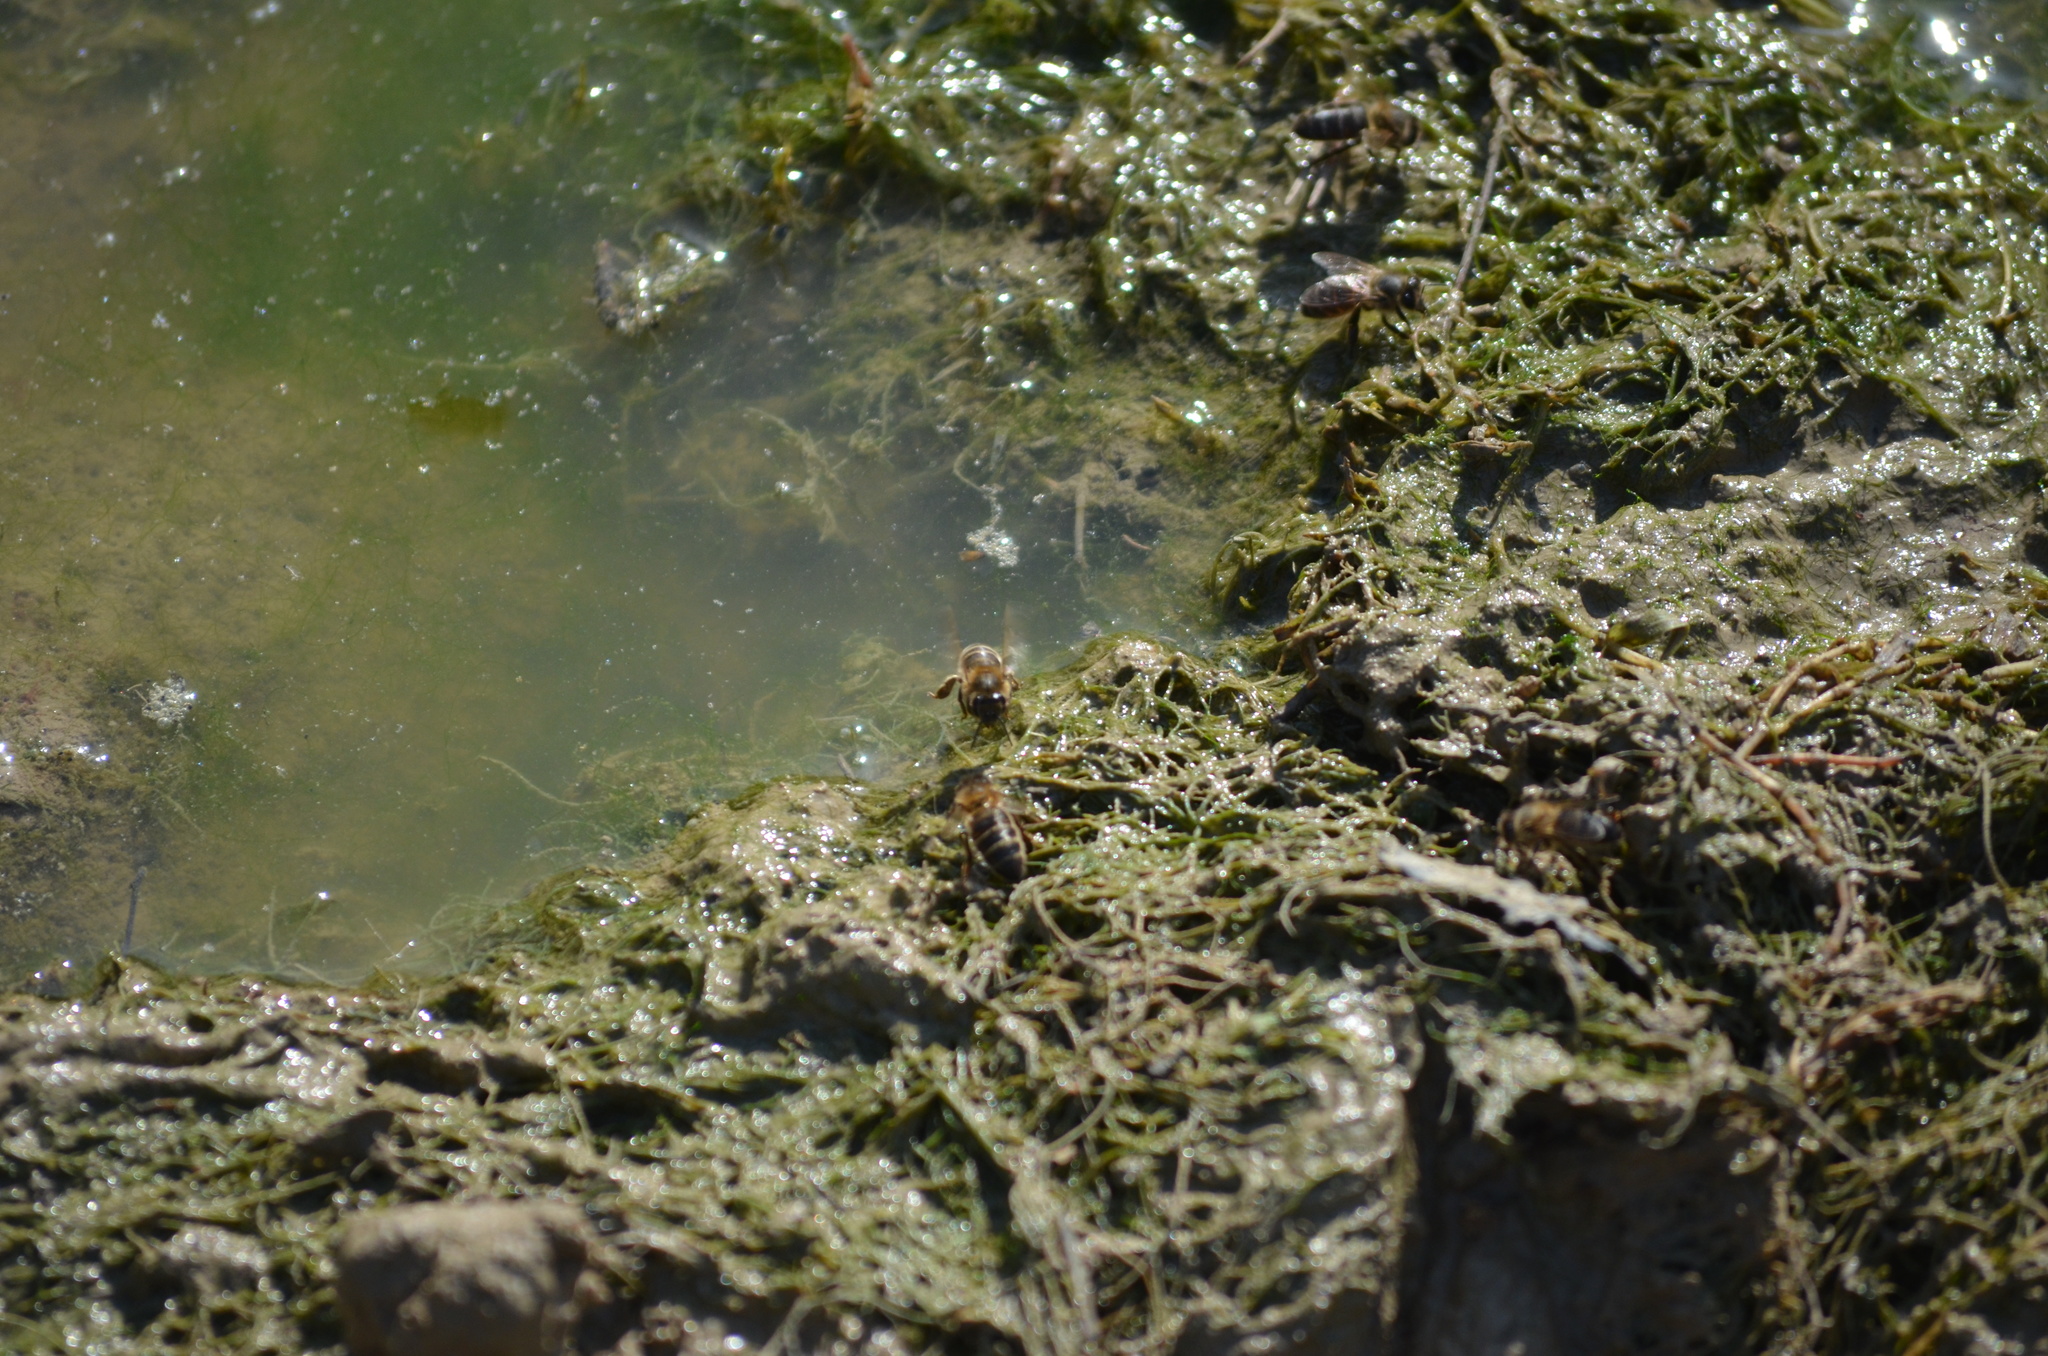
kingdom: Animalia
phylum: Arthropoda
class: Insecta
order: Hymenoptera
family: Apidae
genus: Apis
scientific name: Apis mellifera
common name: Honey bee
